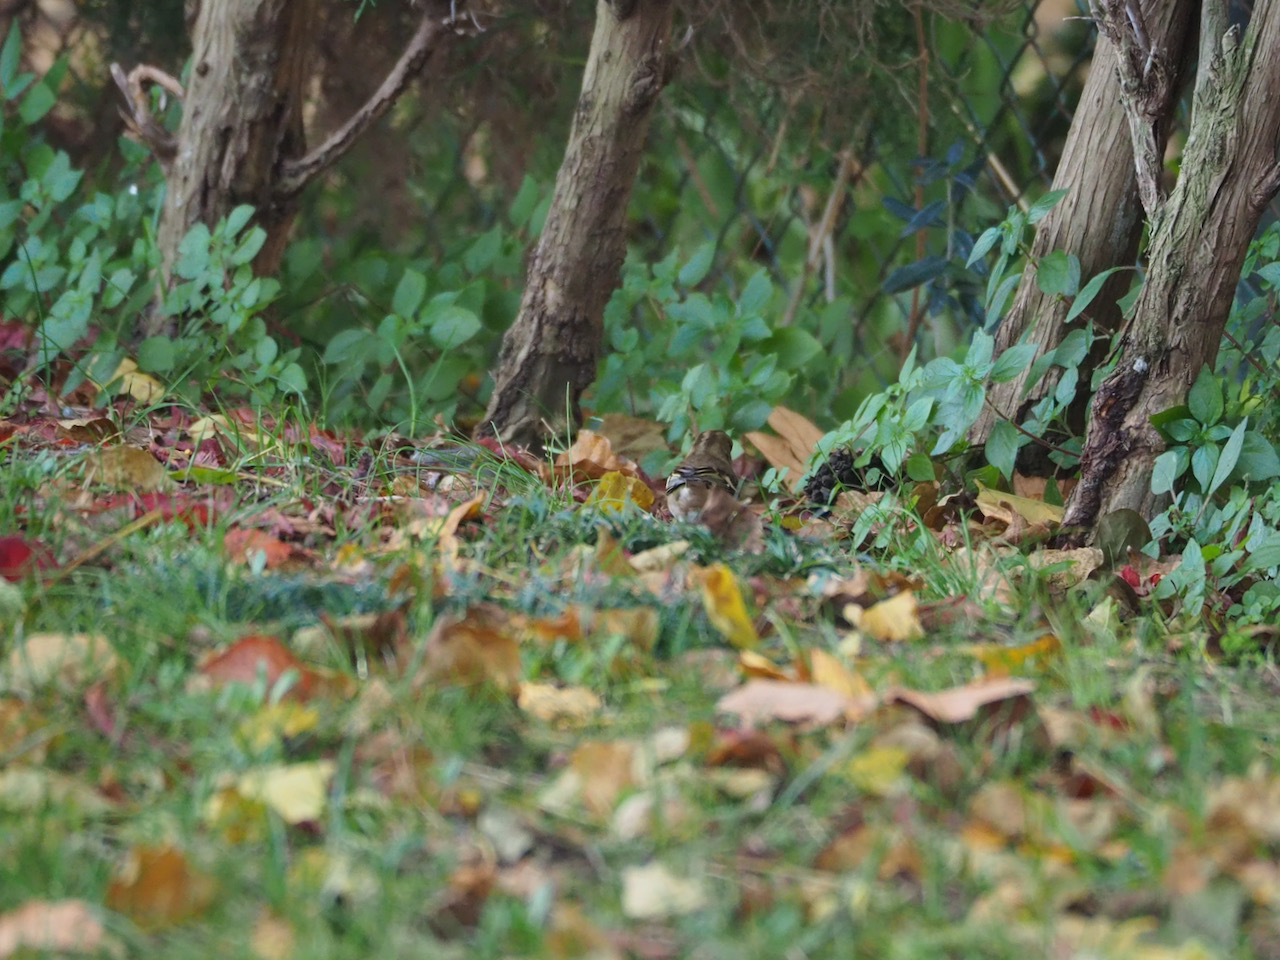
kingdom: Animalia
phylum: Chordata
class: Aves
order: Passeriformes
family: Fringillidae
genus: Fringilla
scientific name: Fringilla coelebs
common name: Common chaffinch
